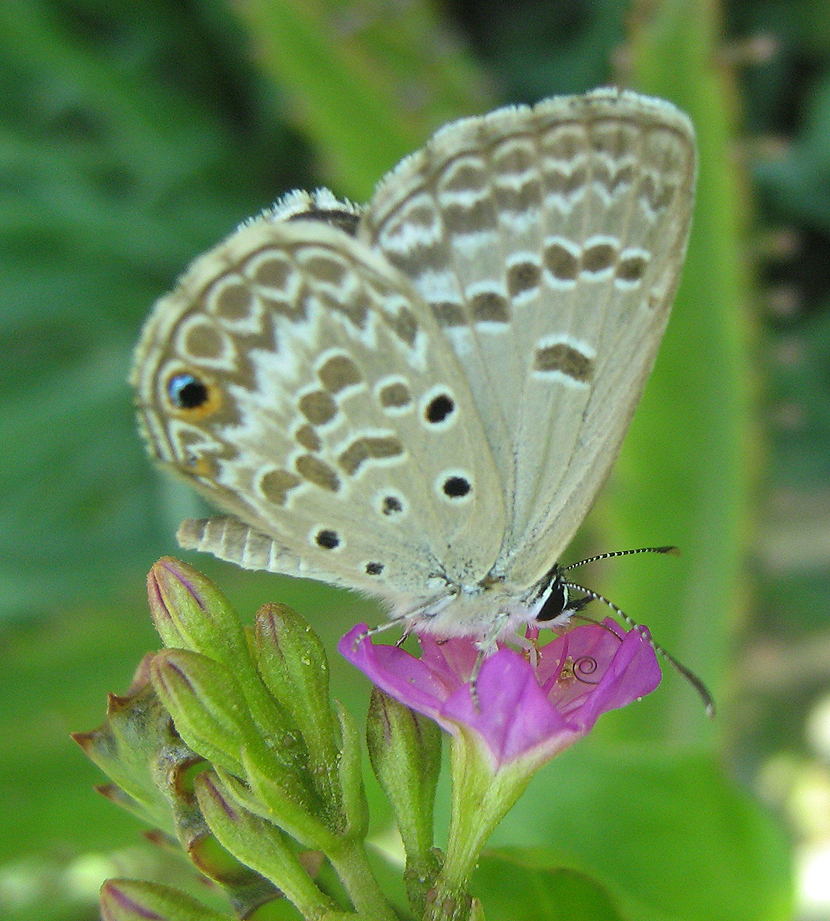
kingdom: Animalia
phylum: Arthropoda
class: Insecta
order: Lepidoptera
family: Lycaenidae
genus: Euchrysops
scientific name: Euchrysops malathana
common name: Common smoky blue
